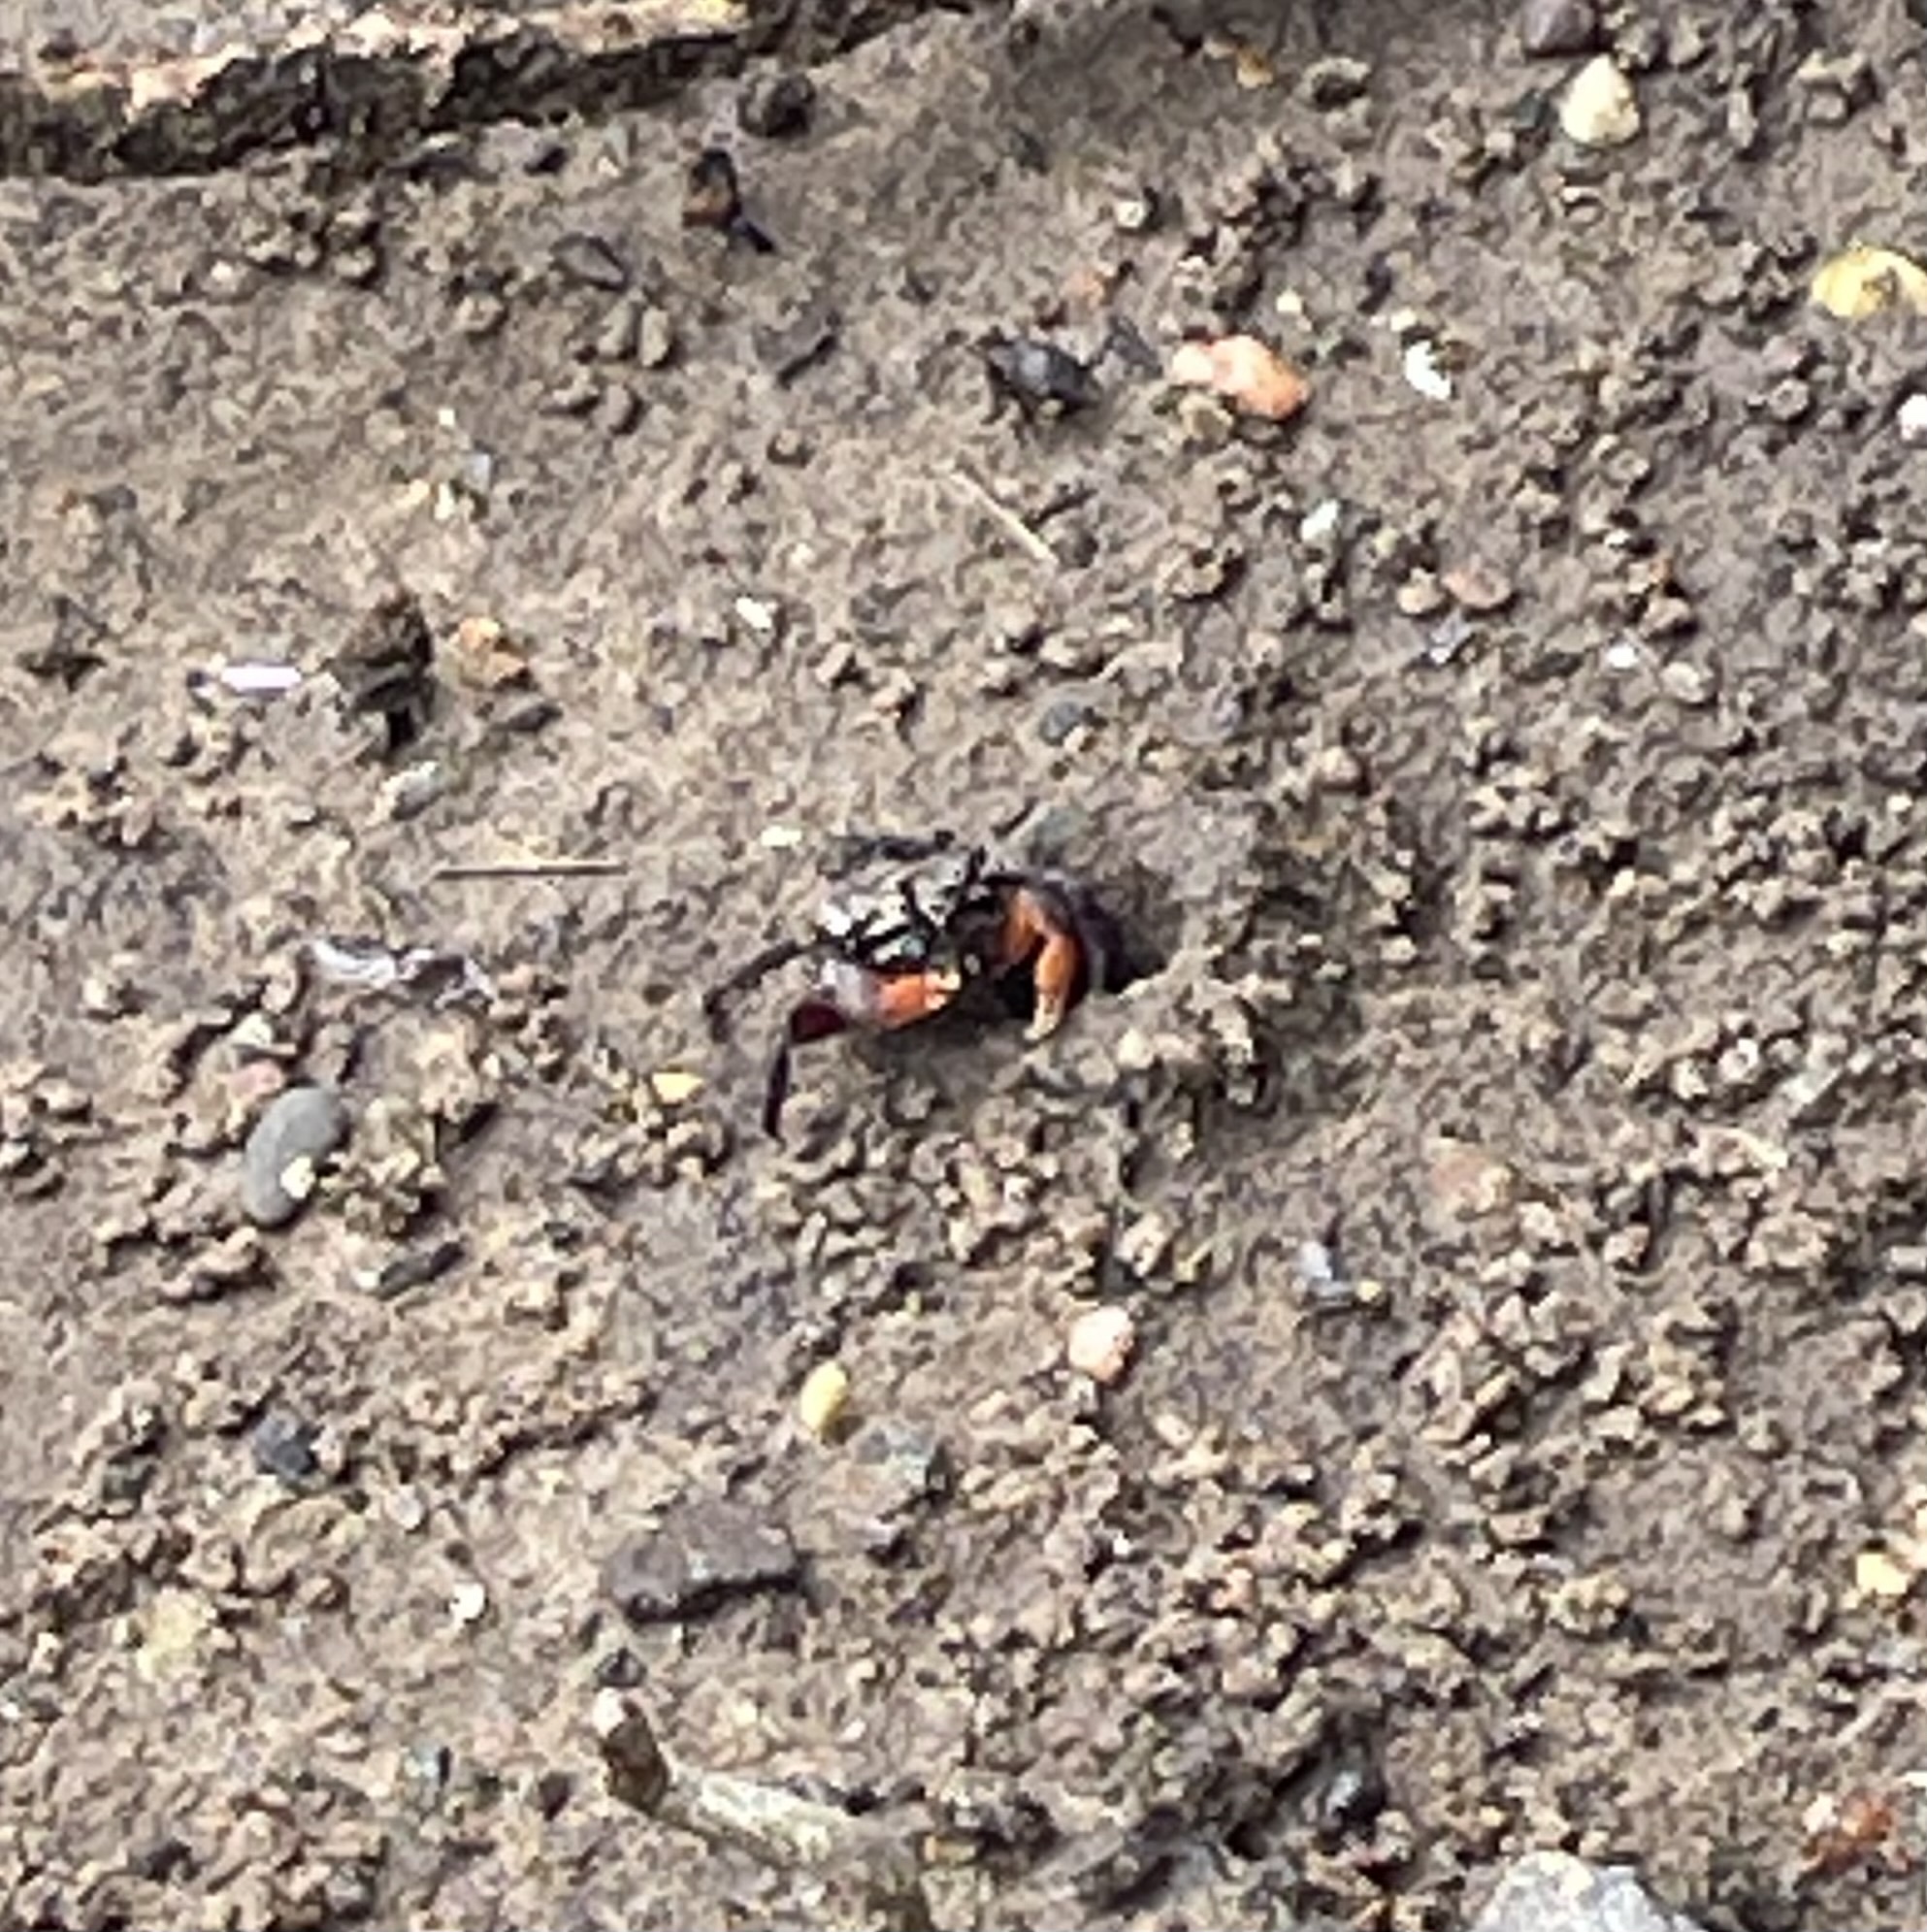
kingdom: Animalia
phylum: Arthropoda
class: Malacostraca
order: Decapoda
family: Heloeciidae
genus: Heloecius
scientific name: Heloecius cordiformis
